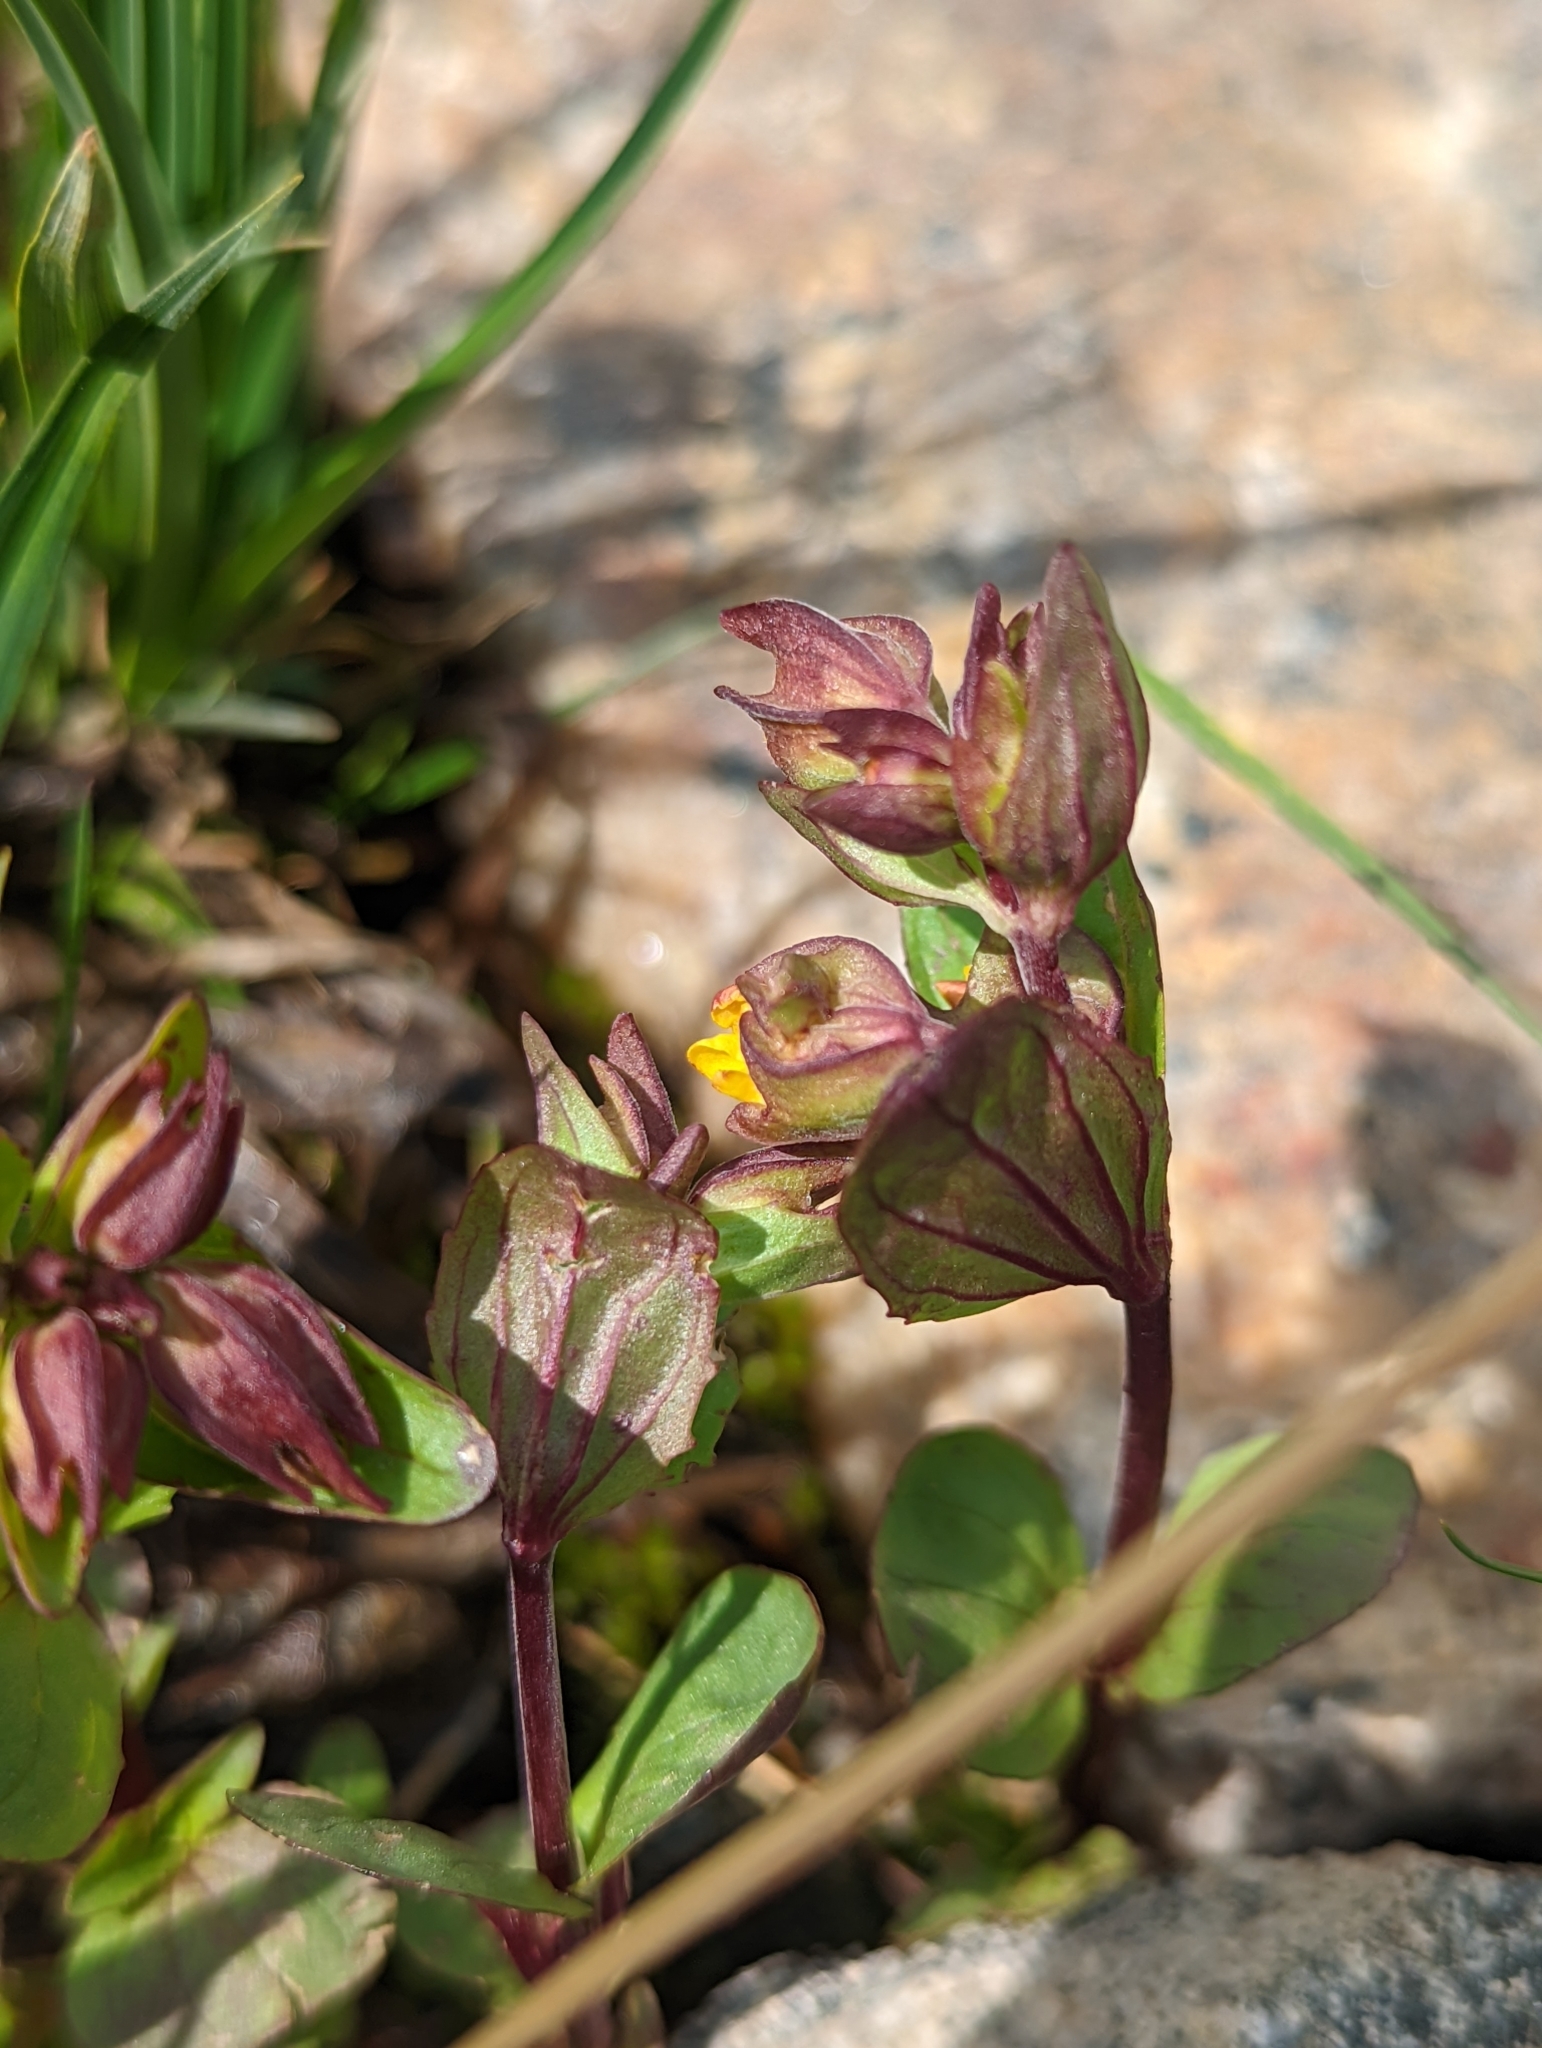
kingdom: Plantae
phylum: Tracheophyta
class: Magnoliopsida
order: Lamiales
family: Phrymaceae
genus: Erythranthe
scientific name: Erythranthe minor
